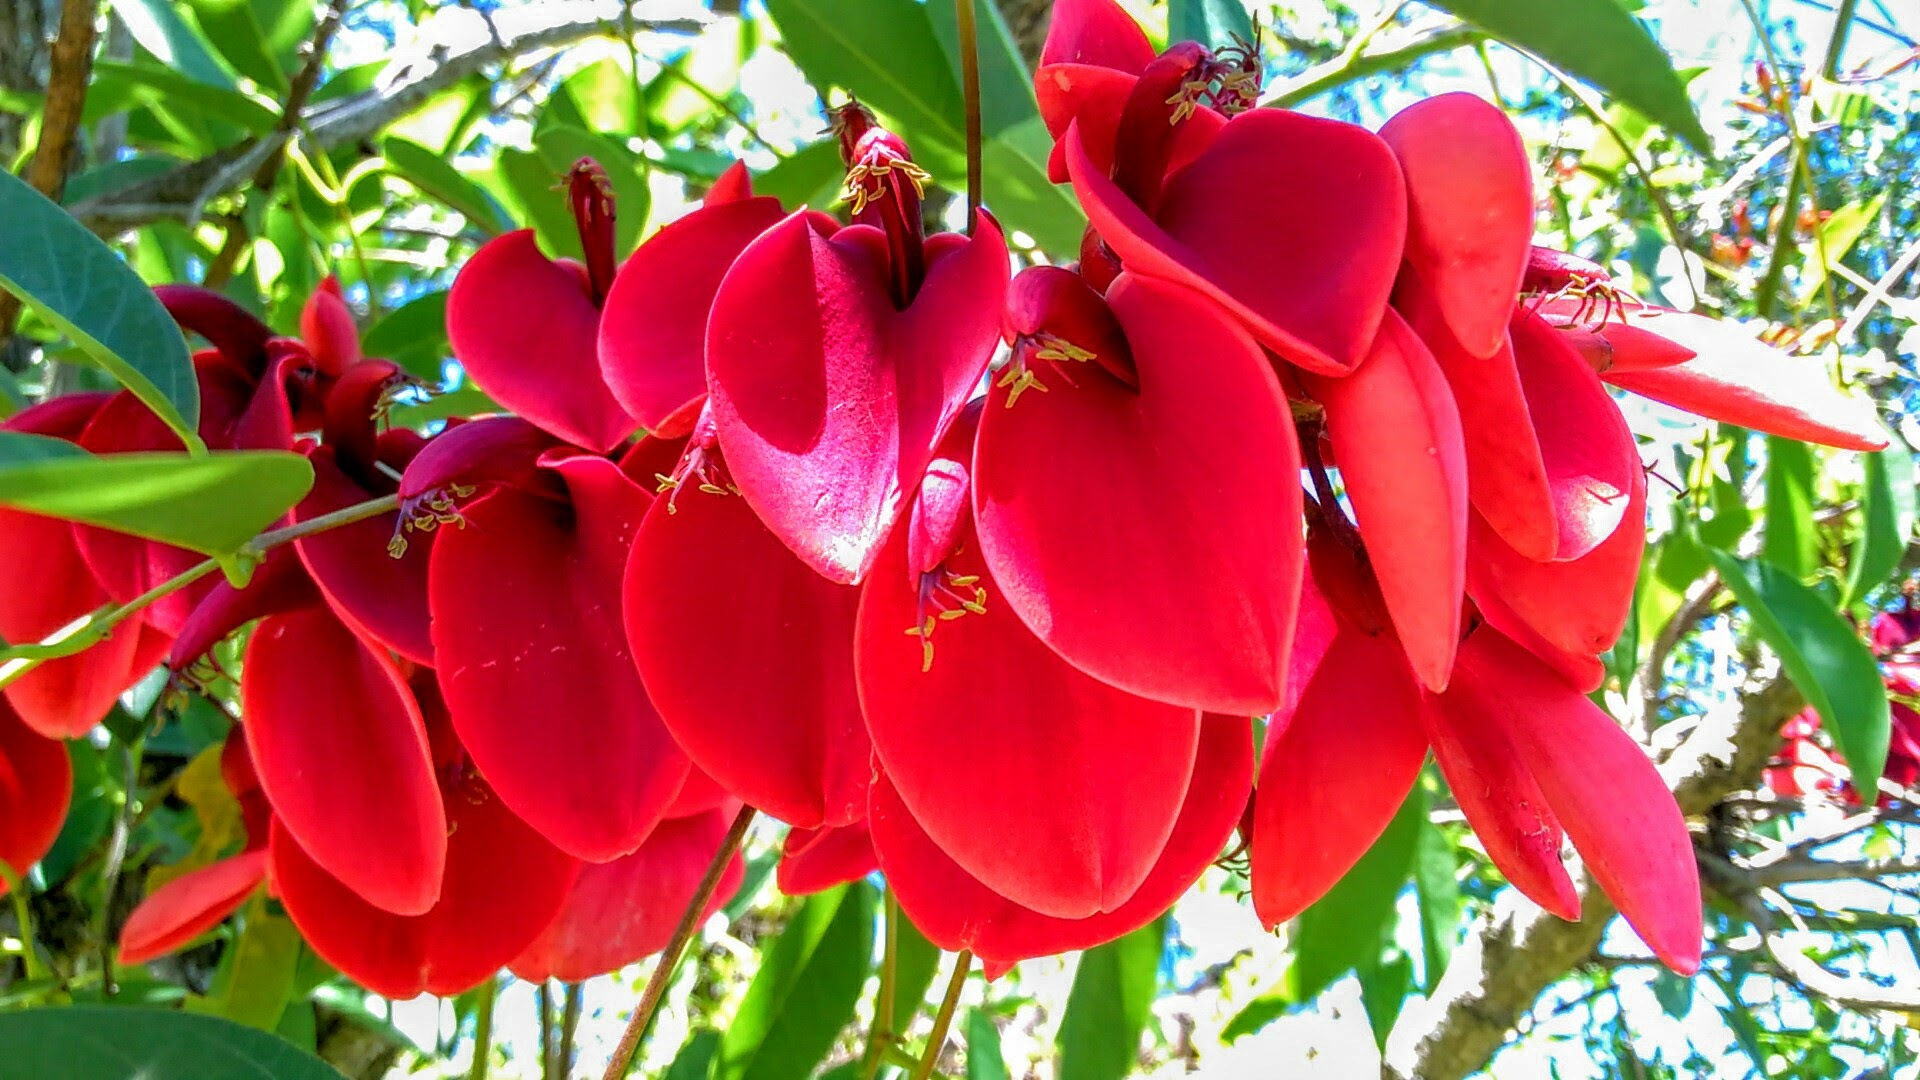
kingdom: Plantae
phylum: Tracheophyta
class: Magnoliopsida
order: Fabales
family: Fabaceae
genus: Erythrina
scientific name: Erythrina crista-galli
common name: Cockspur coral tree
